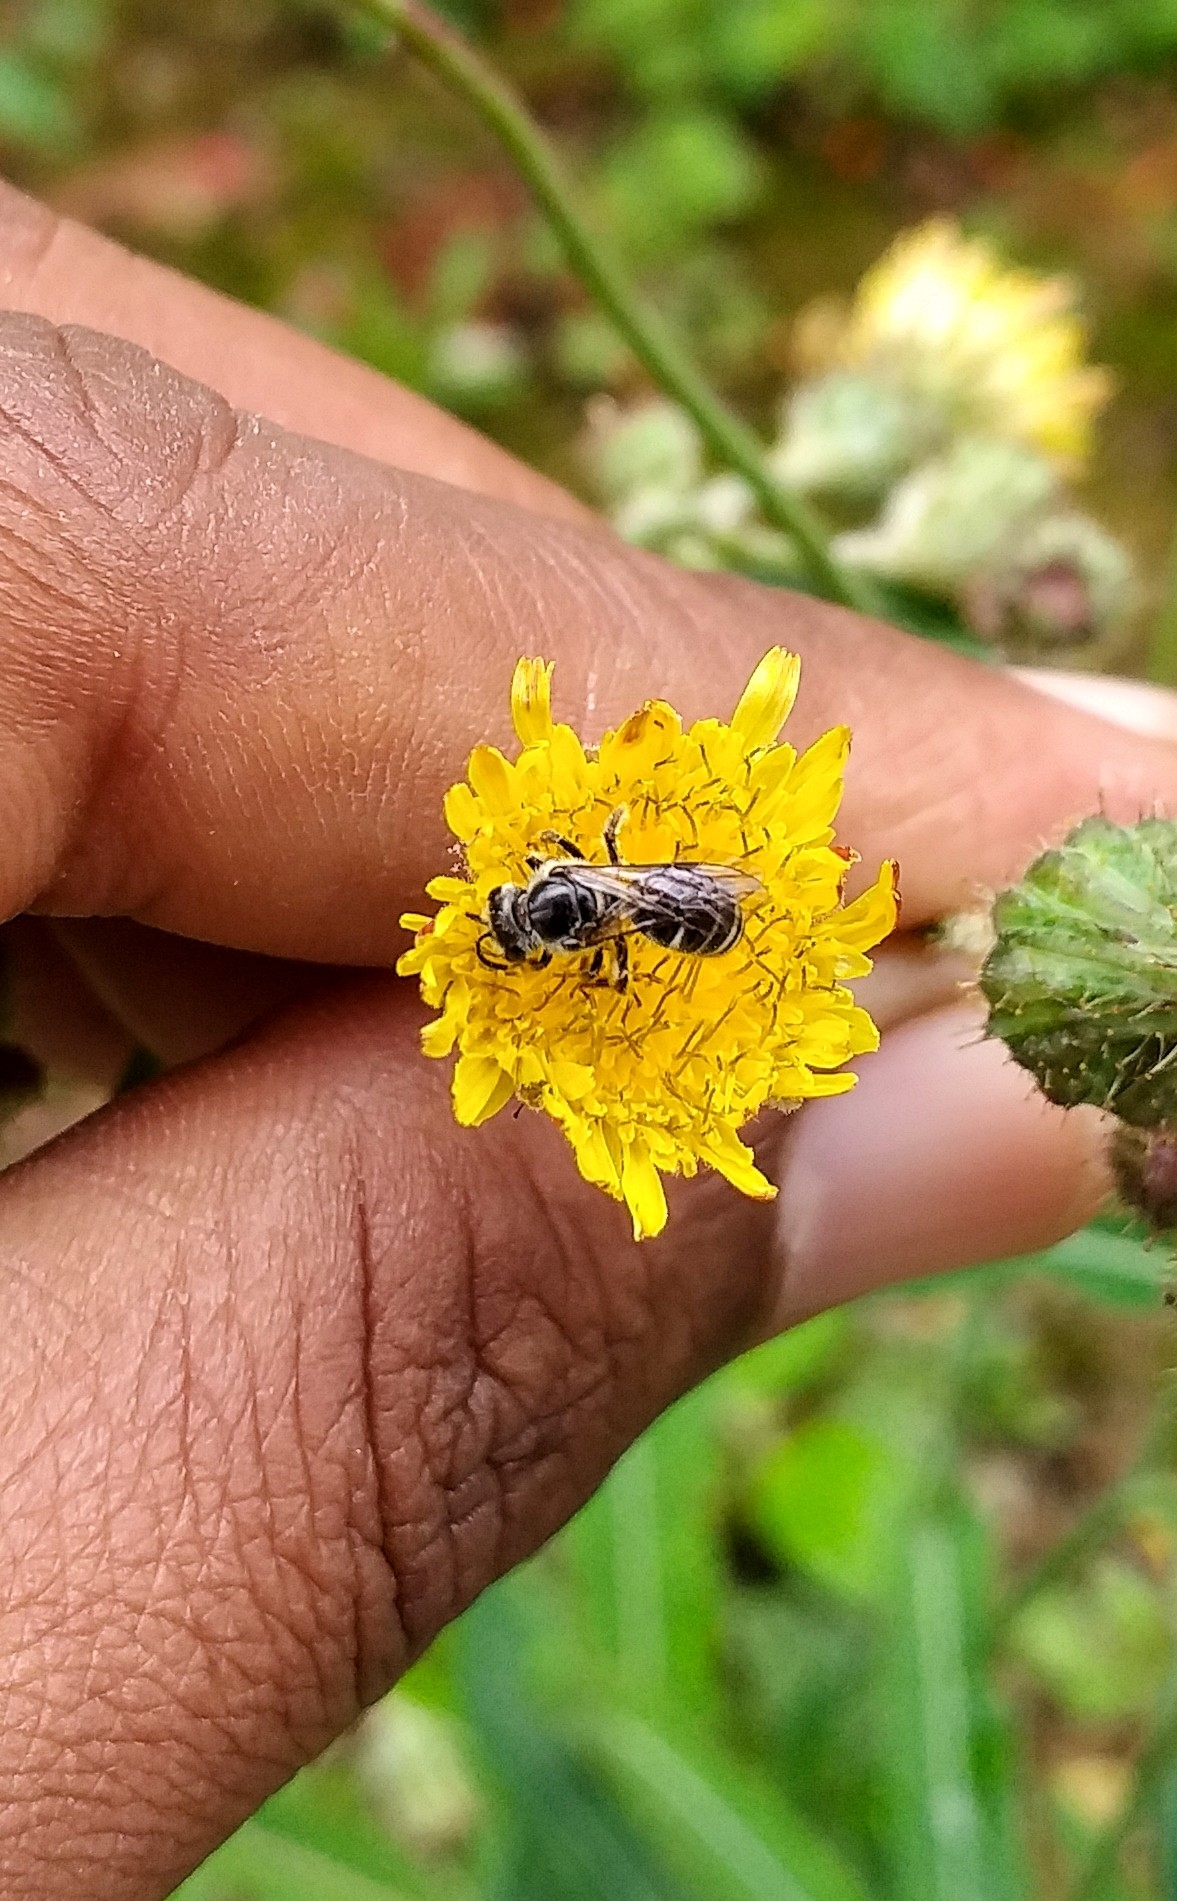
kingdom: Animalia
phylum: Arthropoda
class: Insecta
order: Hymenoptera
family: Halictidae
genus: Lasioglossum
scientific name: Lasioglossum albescens
